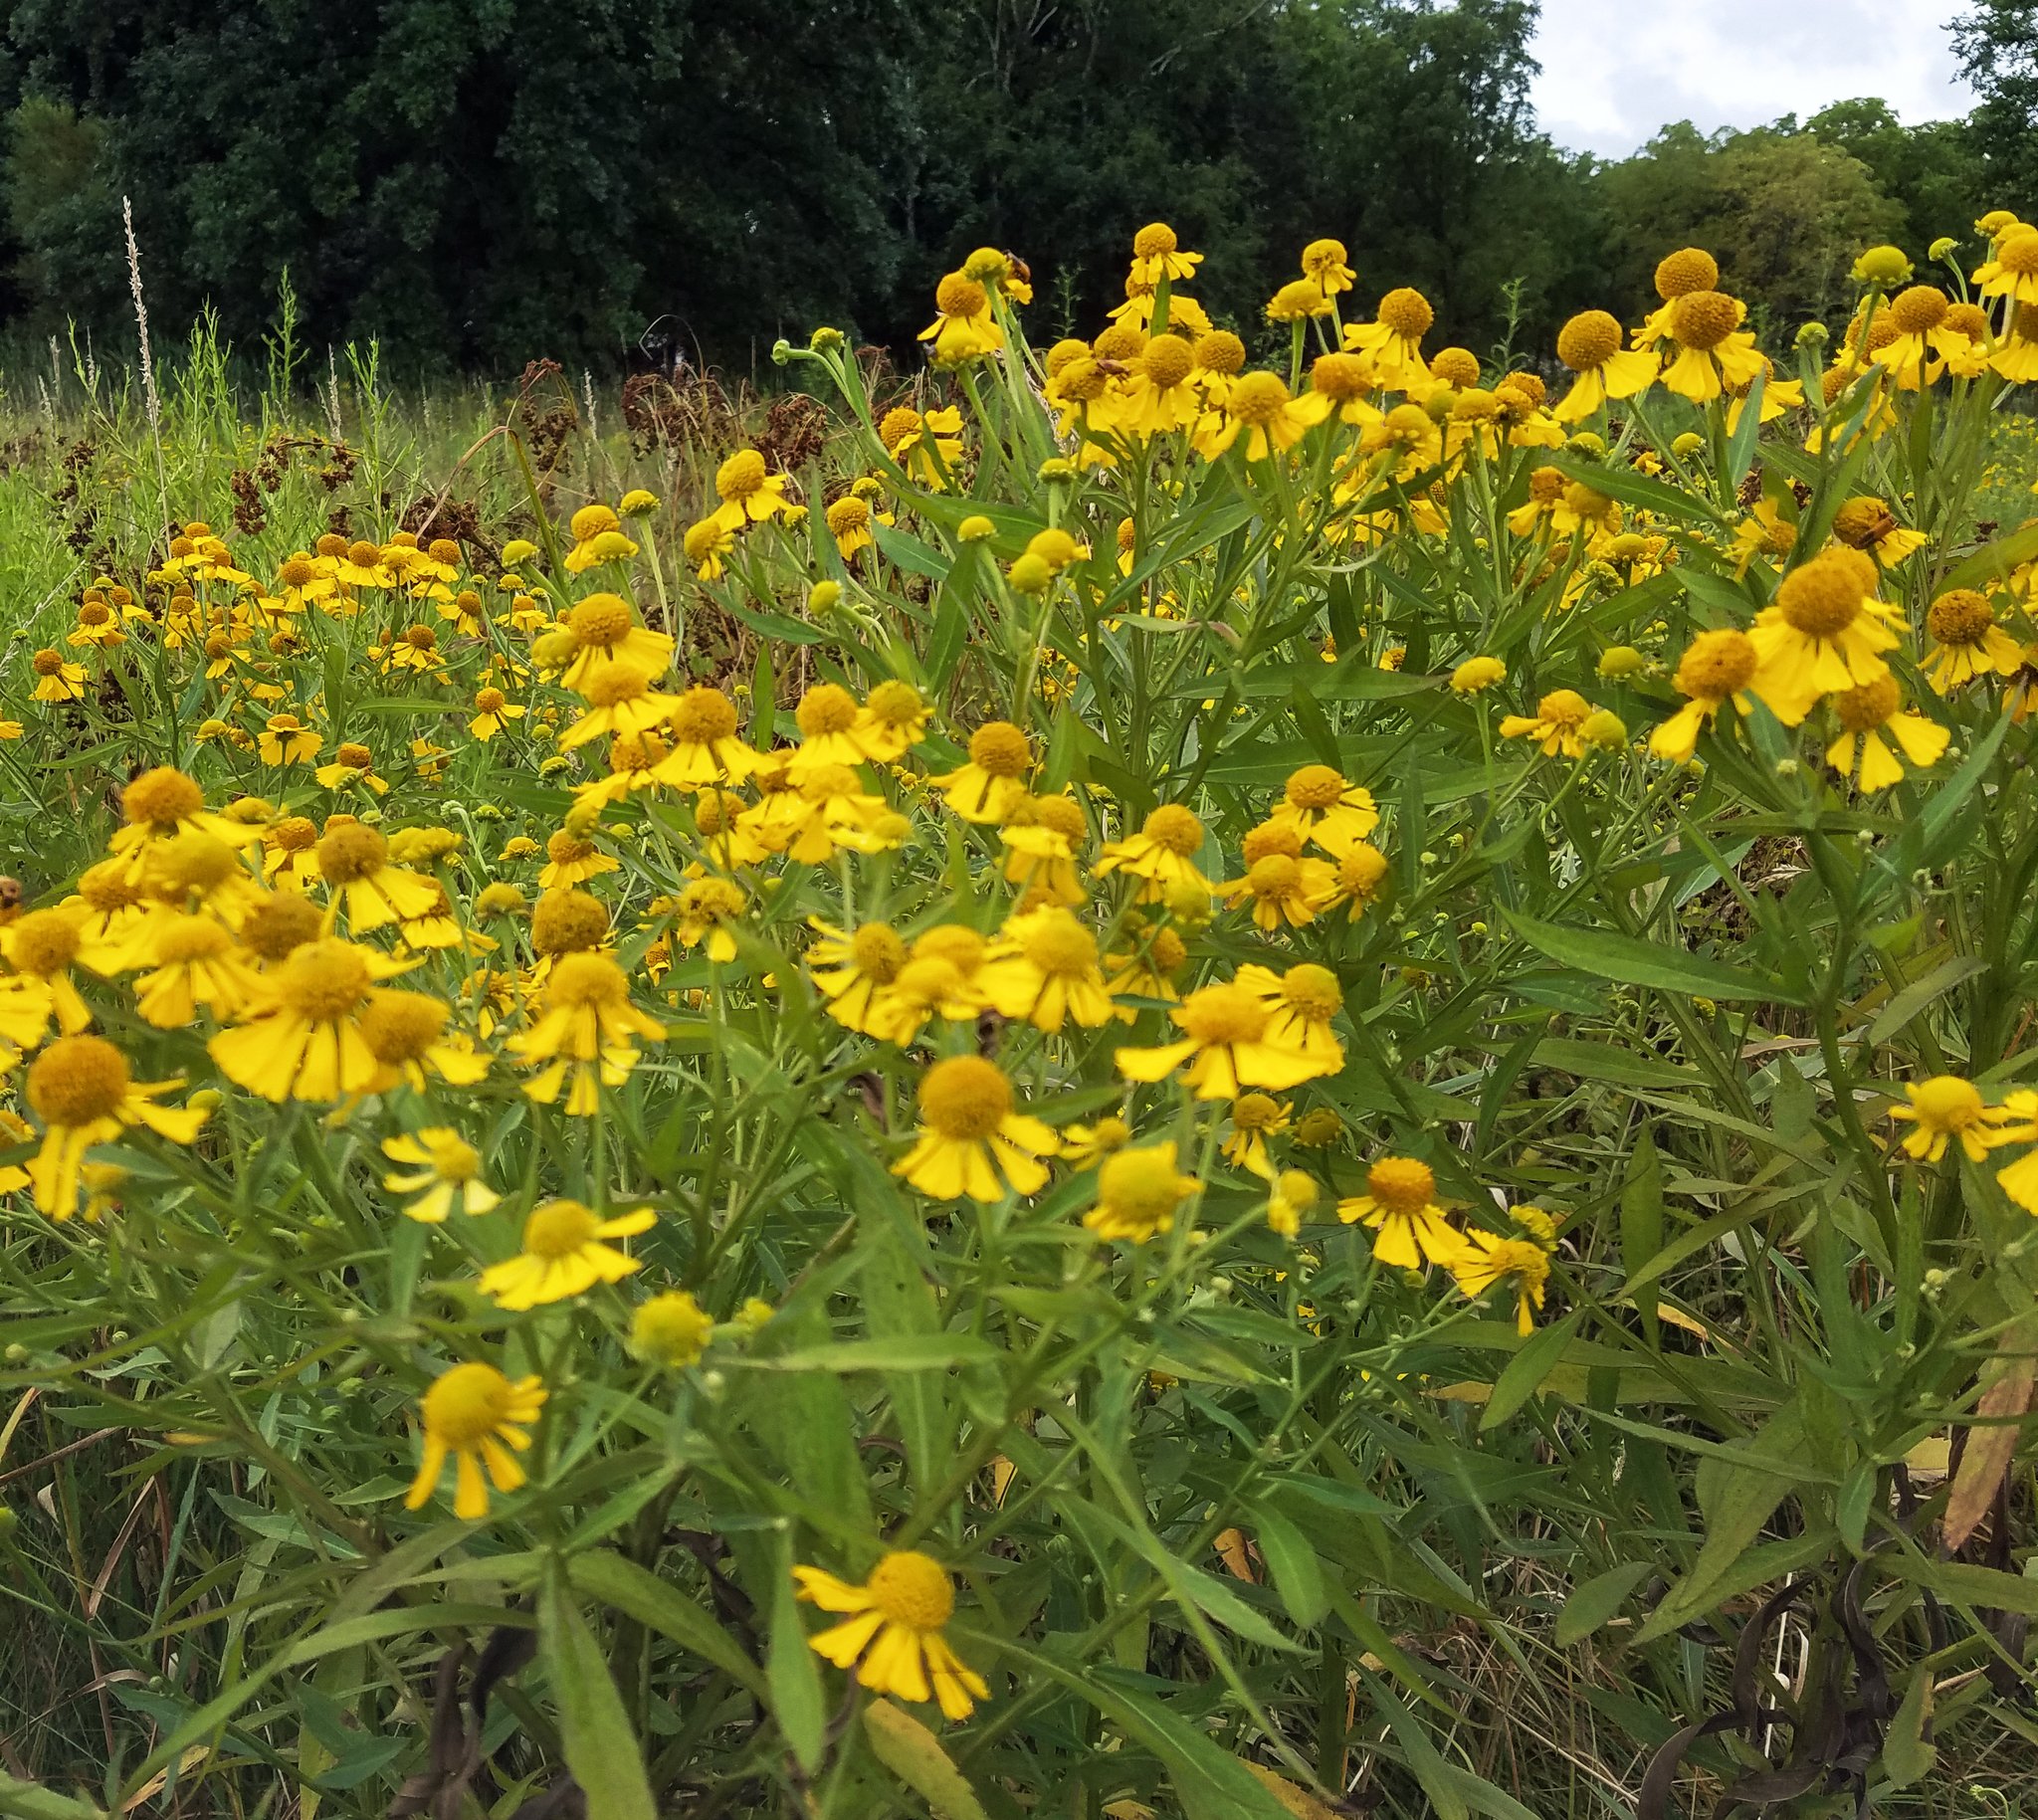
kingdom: Plantae
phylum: Tracheophyta
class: Magnoliopsida
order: Asterales
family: Asteraceae
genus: Helenium
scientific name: Helenium autumnale
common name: Sneezeweed
